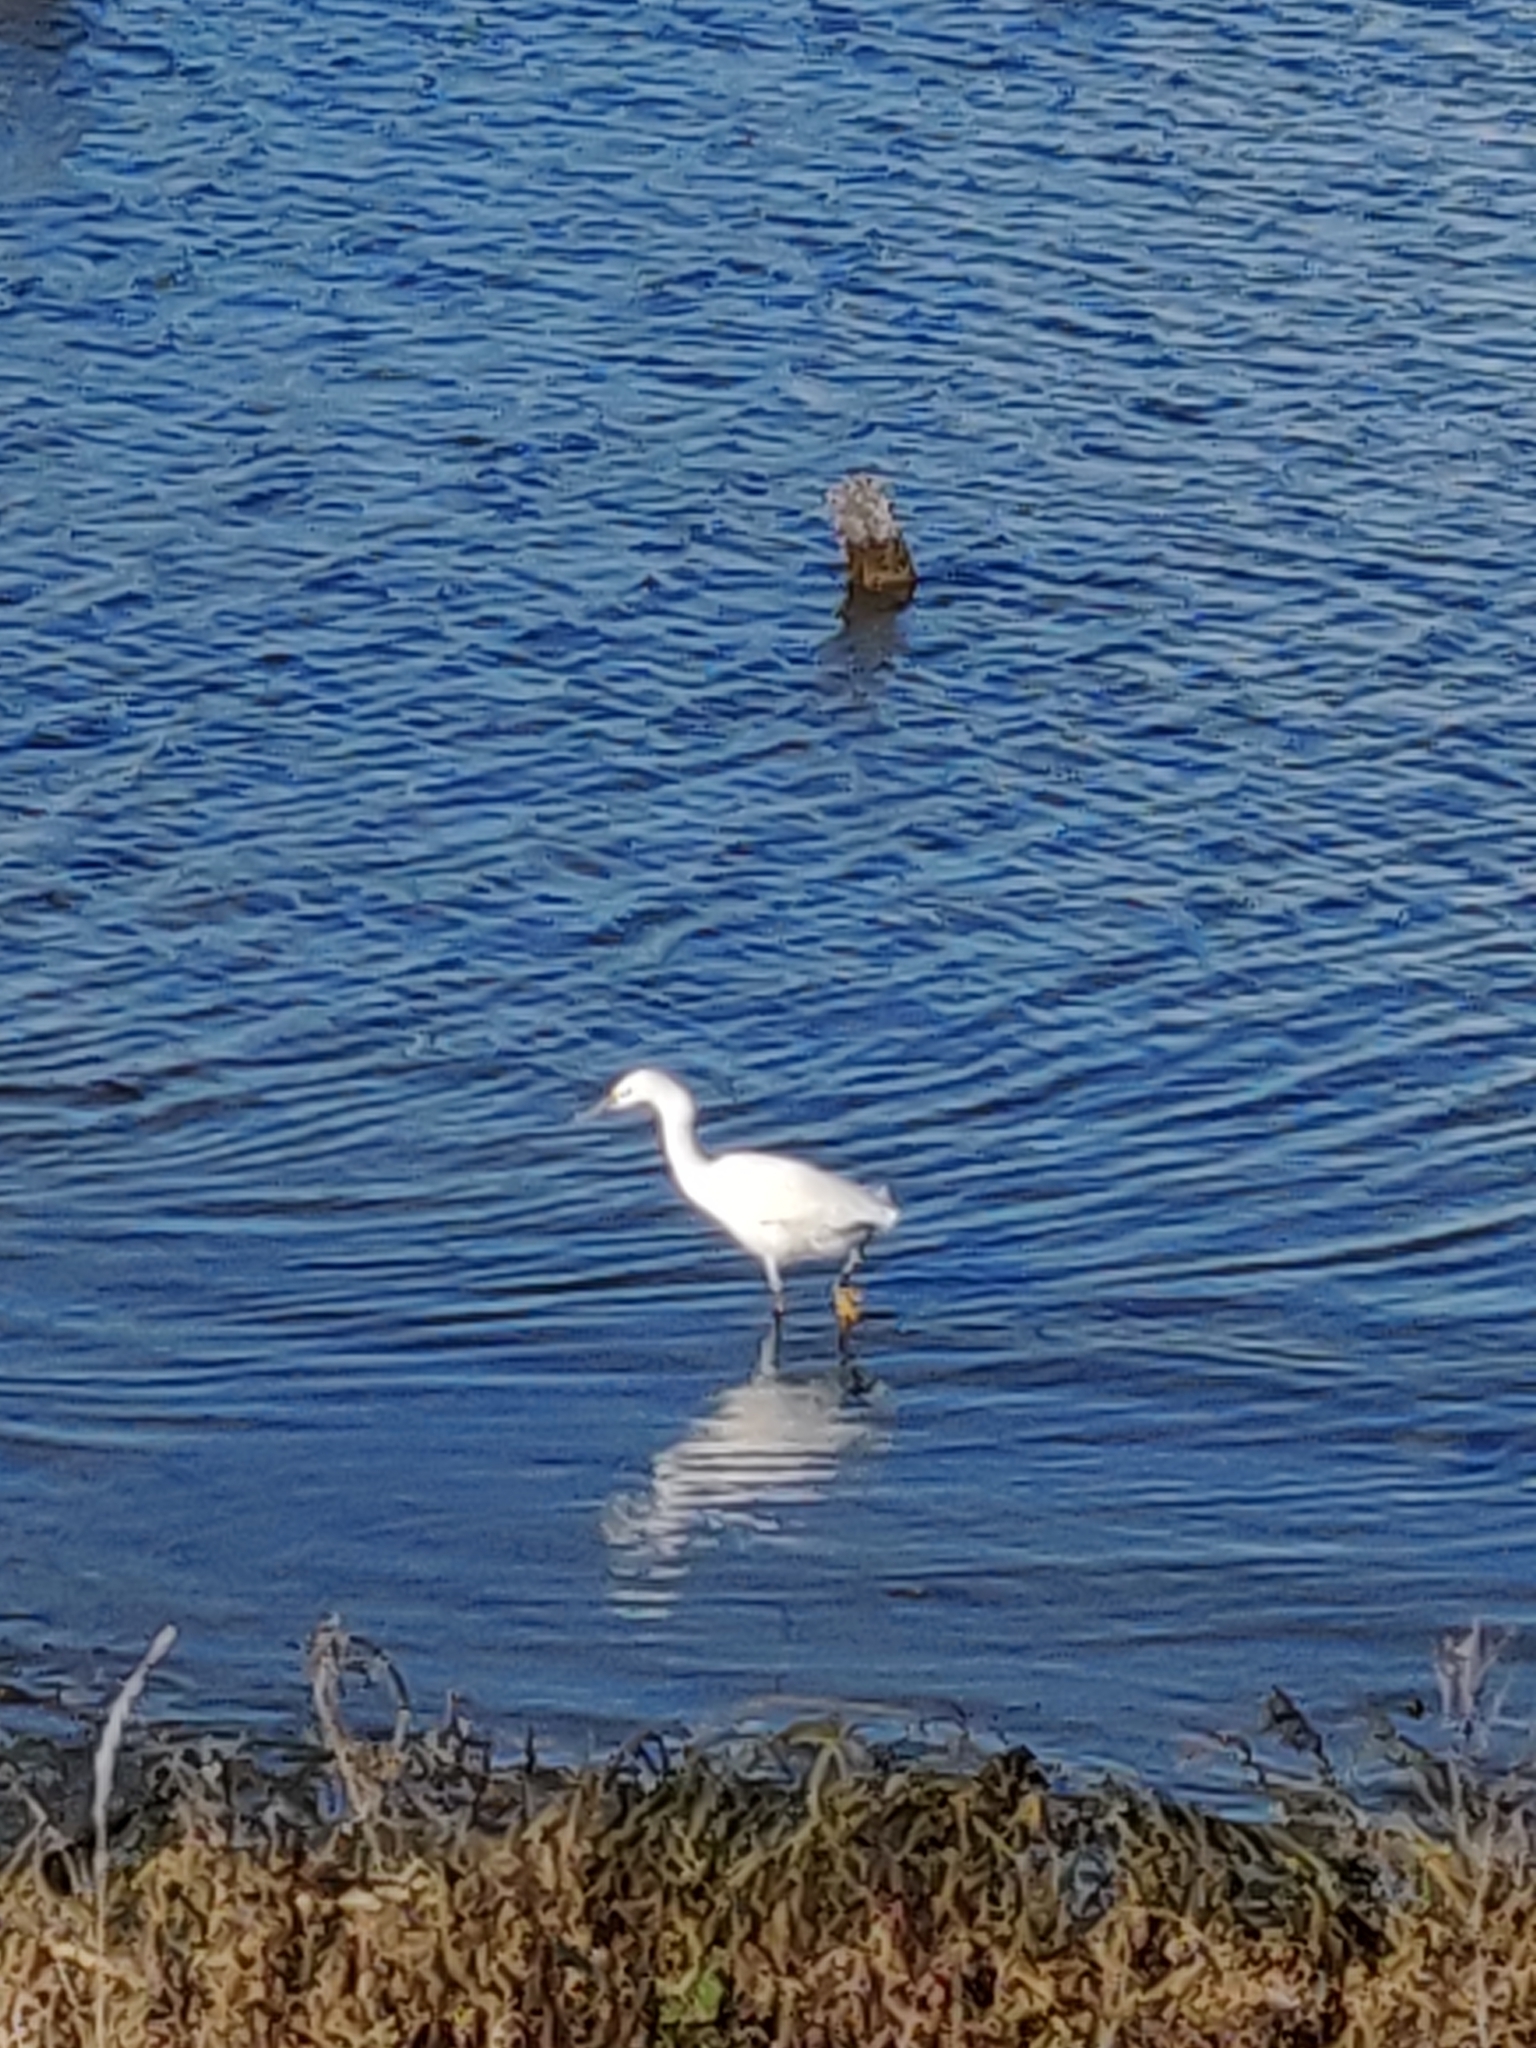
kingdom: Animalia
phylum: Chordata
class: Aves
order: Pelecaniformes
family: Ardeidae
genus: Egretta
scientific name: Egretta thula
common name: Snowy egret
